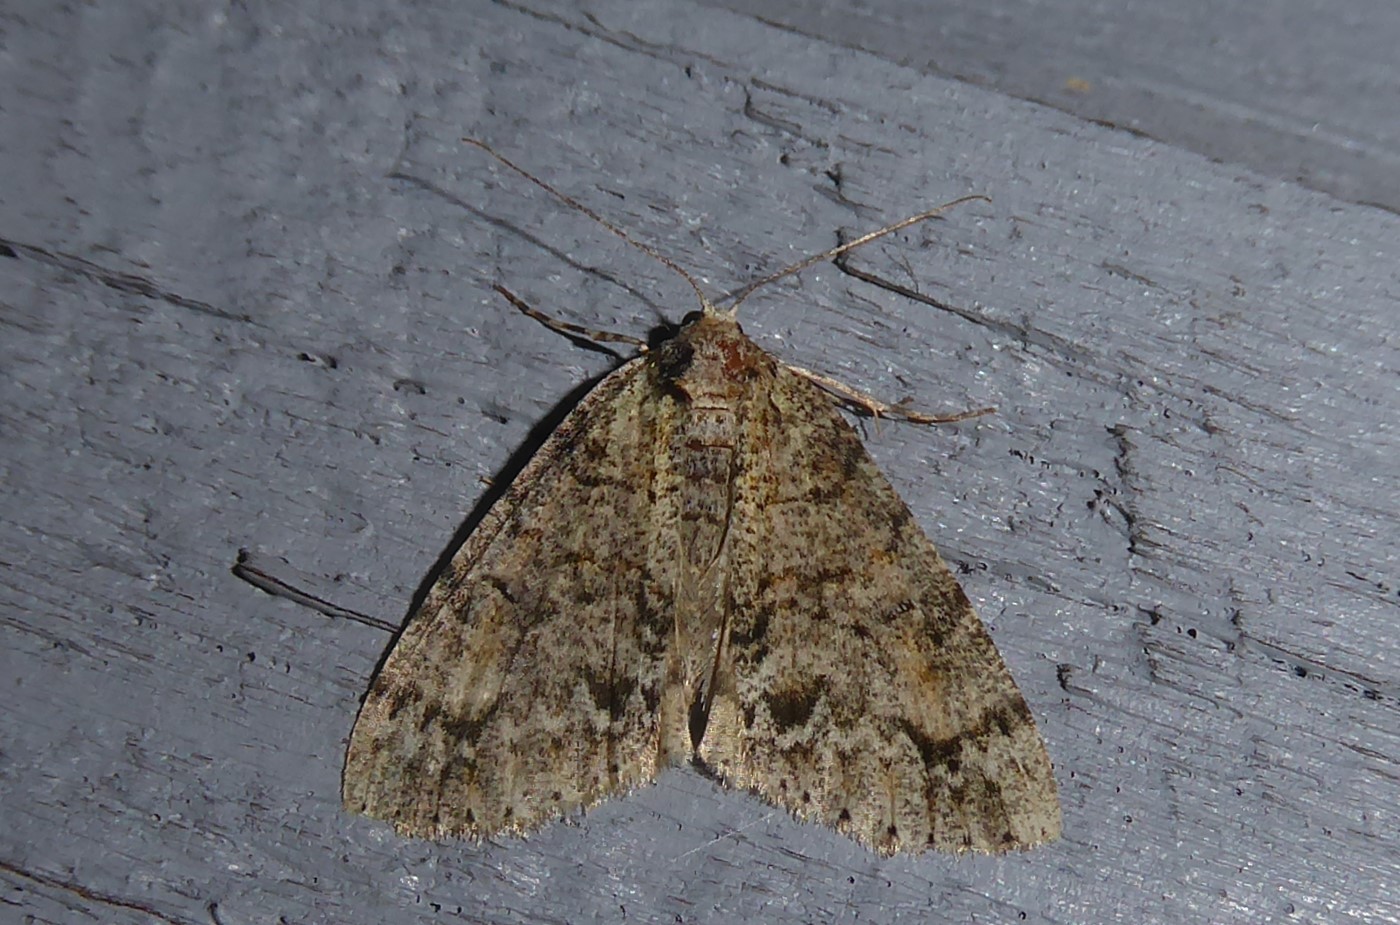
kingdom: Animalia
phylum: Arthropoda
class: Insecta
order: Lepidoptera
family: Geometridae
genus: Pseudocoremia
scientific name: Pseudocoremia suavis
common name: Common forest looper
